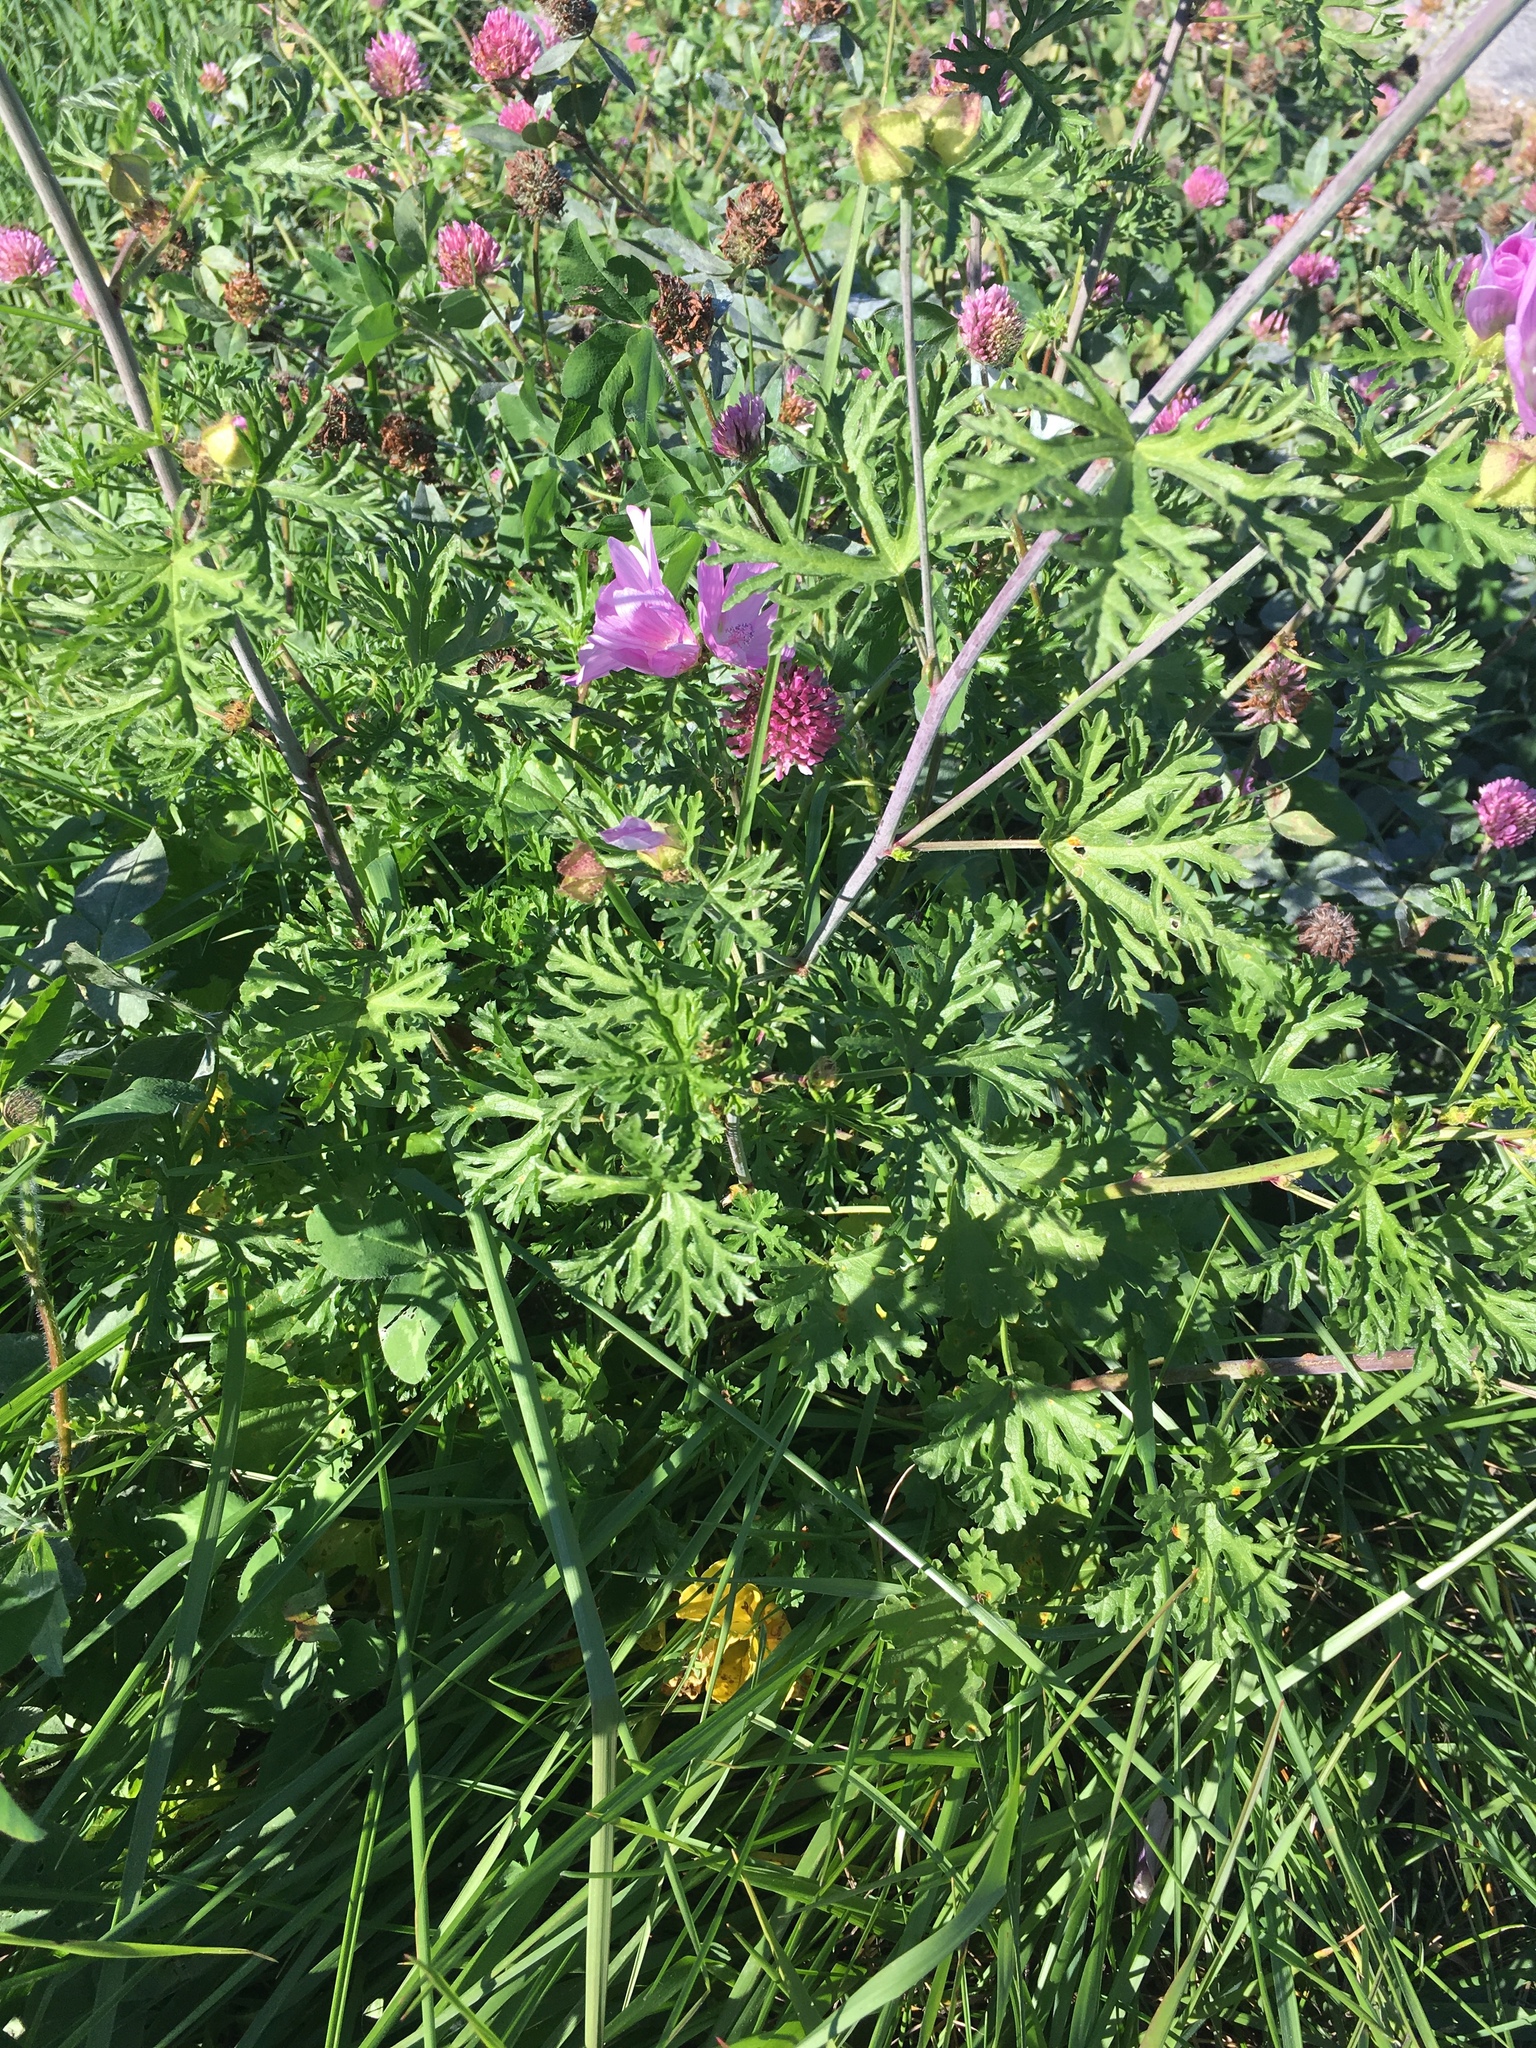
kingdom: Plantae
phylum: Tracheophyta
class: Magnoliopsida
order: Malvales
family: Malvaceae
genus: Malva
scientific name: Malva moschata
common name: Musk mallow
